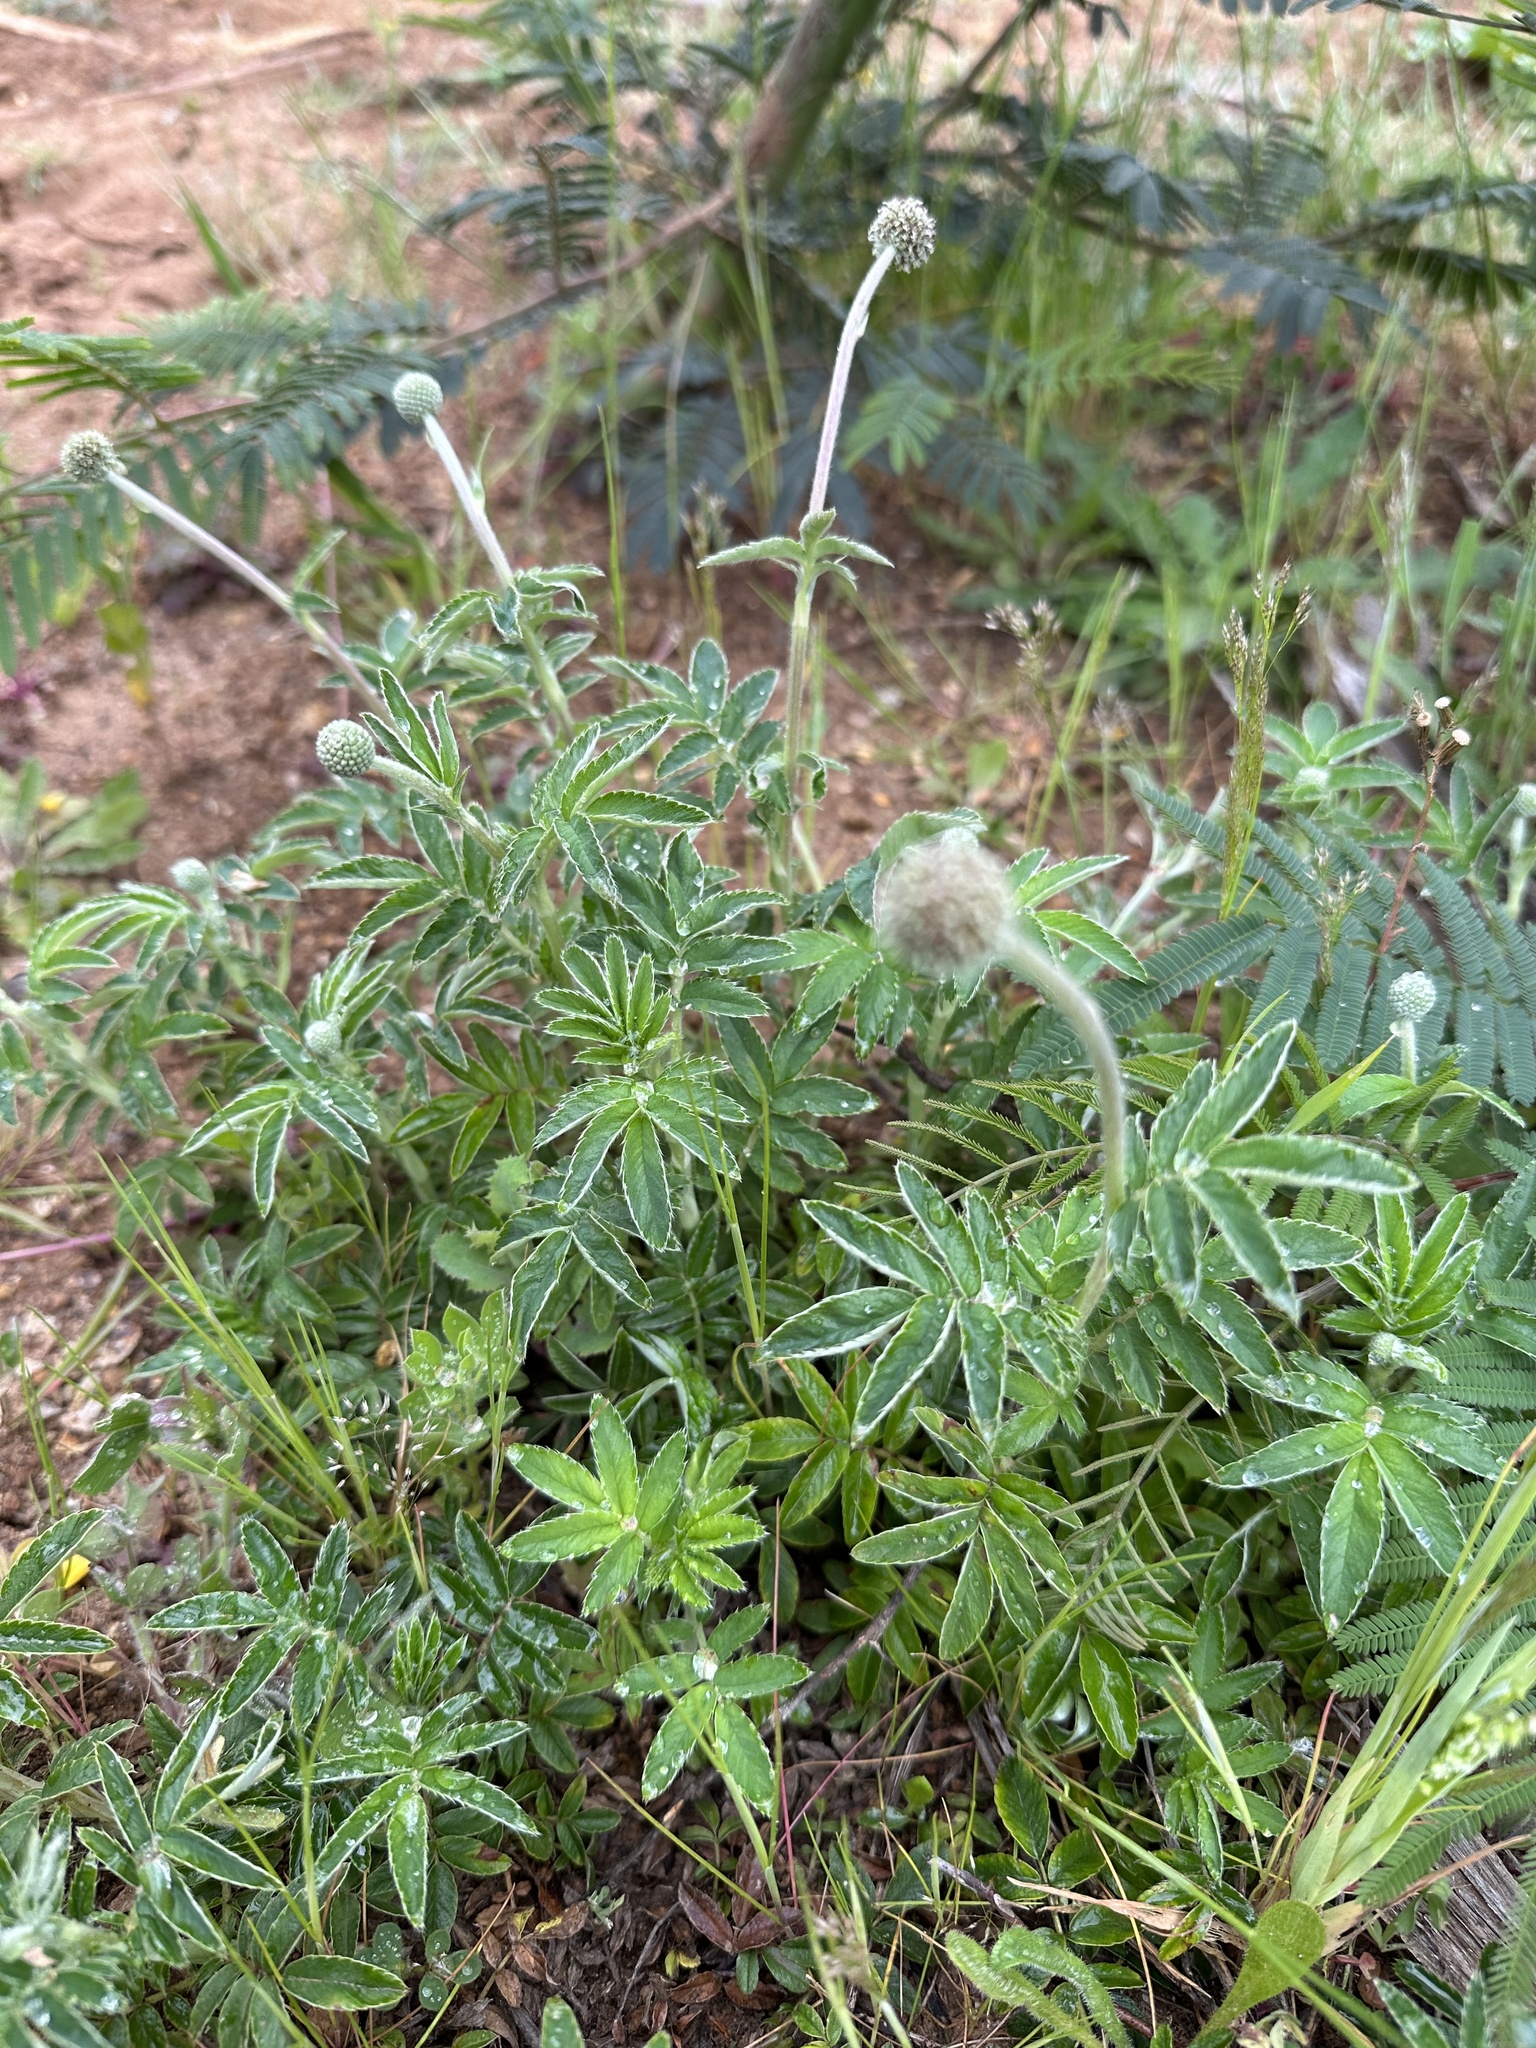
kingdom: Plantae
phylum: Tracheophyta
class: Magnoliopsida
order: Rosales
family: Rosaceae
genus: Acaena
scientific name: Acaena argentea
